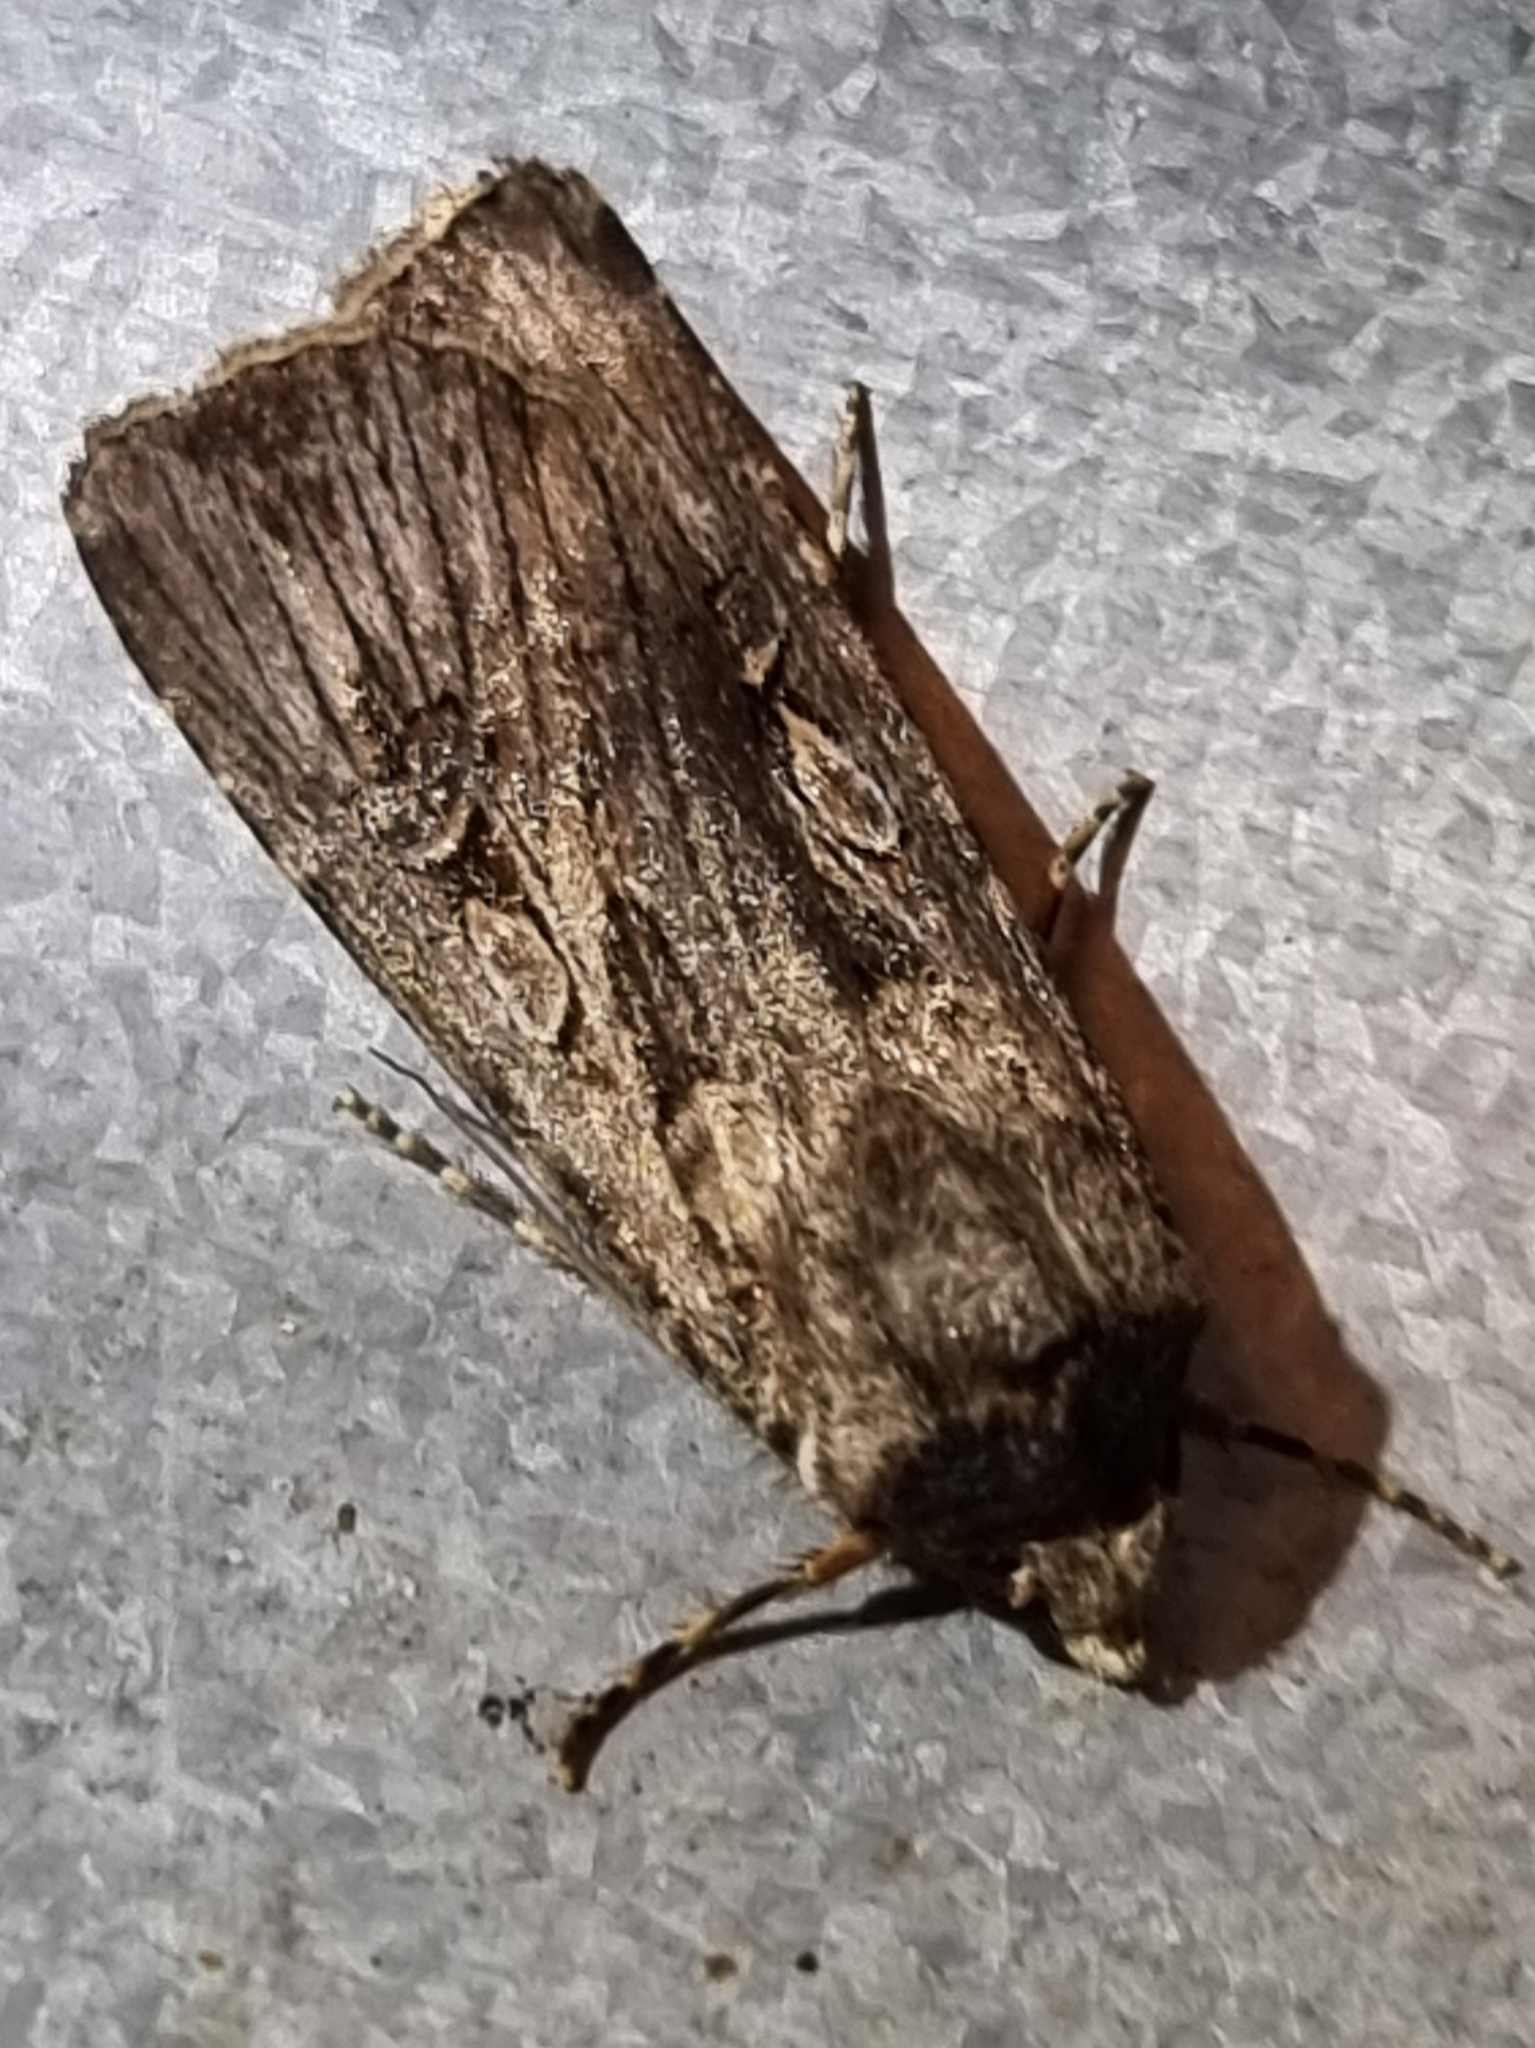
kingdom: Animalia
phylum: Arthropoda
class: Insecta
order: Lepidoptera
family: Noctuidae
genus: Agrotis
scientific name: Agrotis munda
